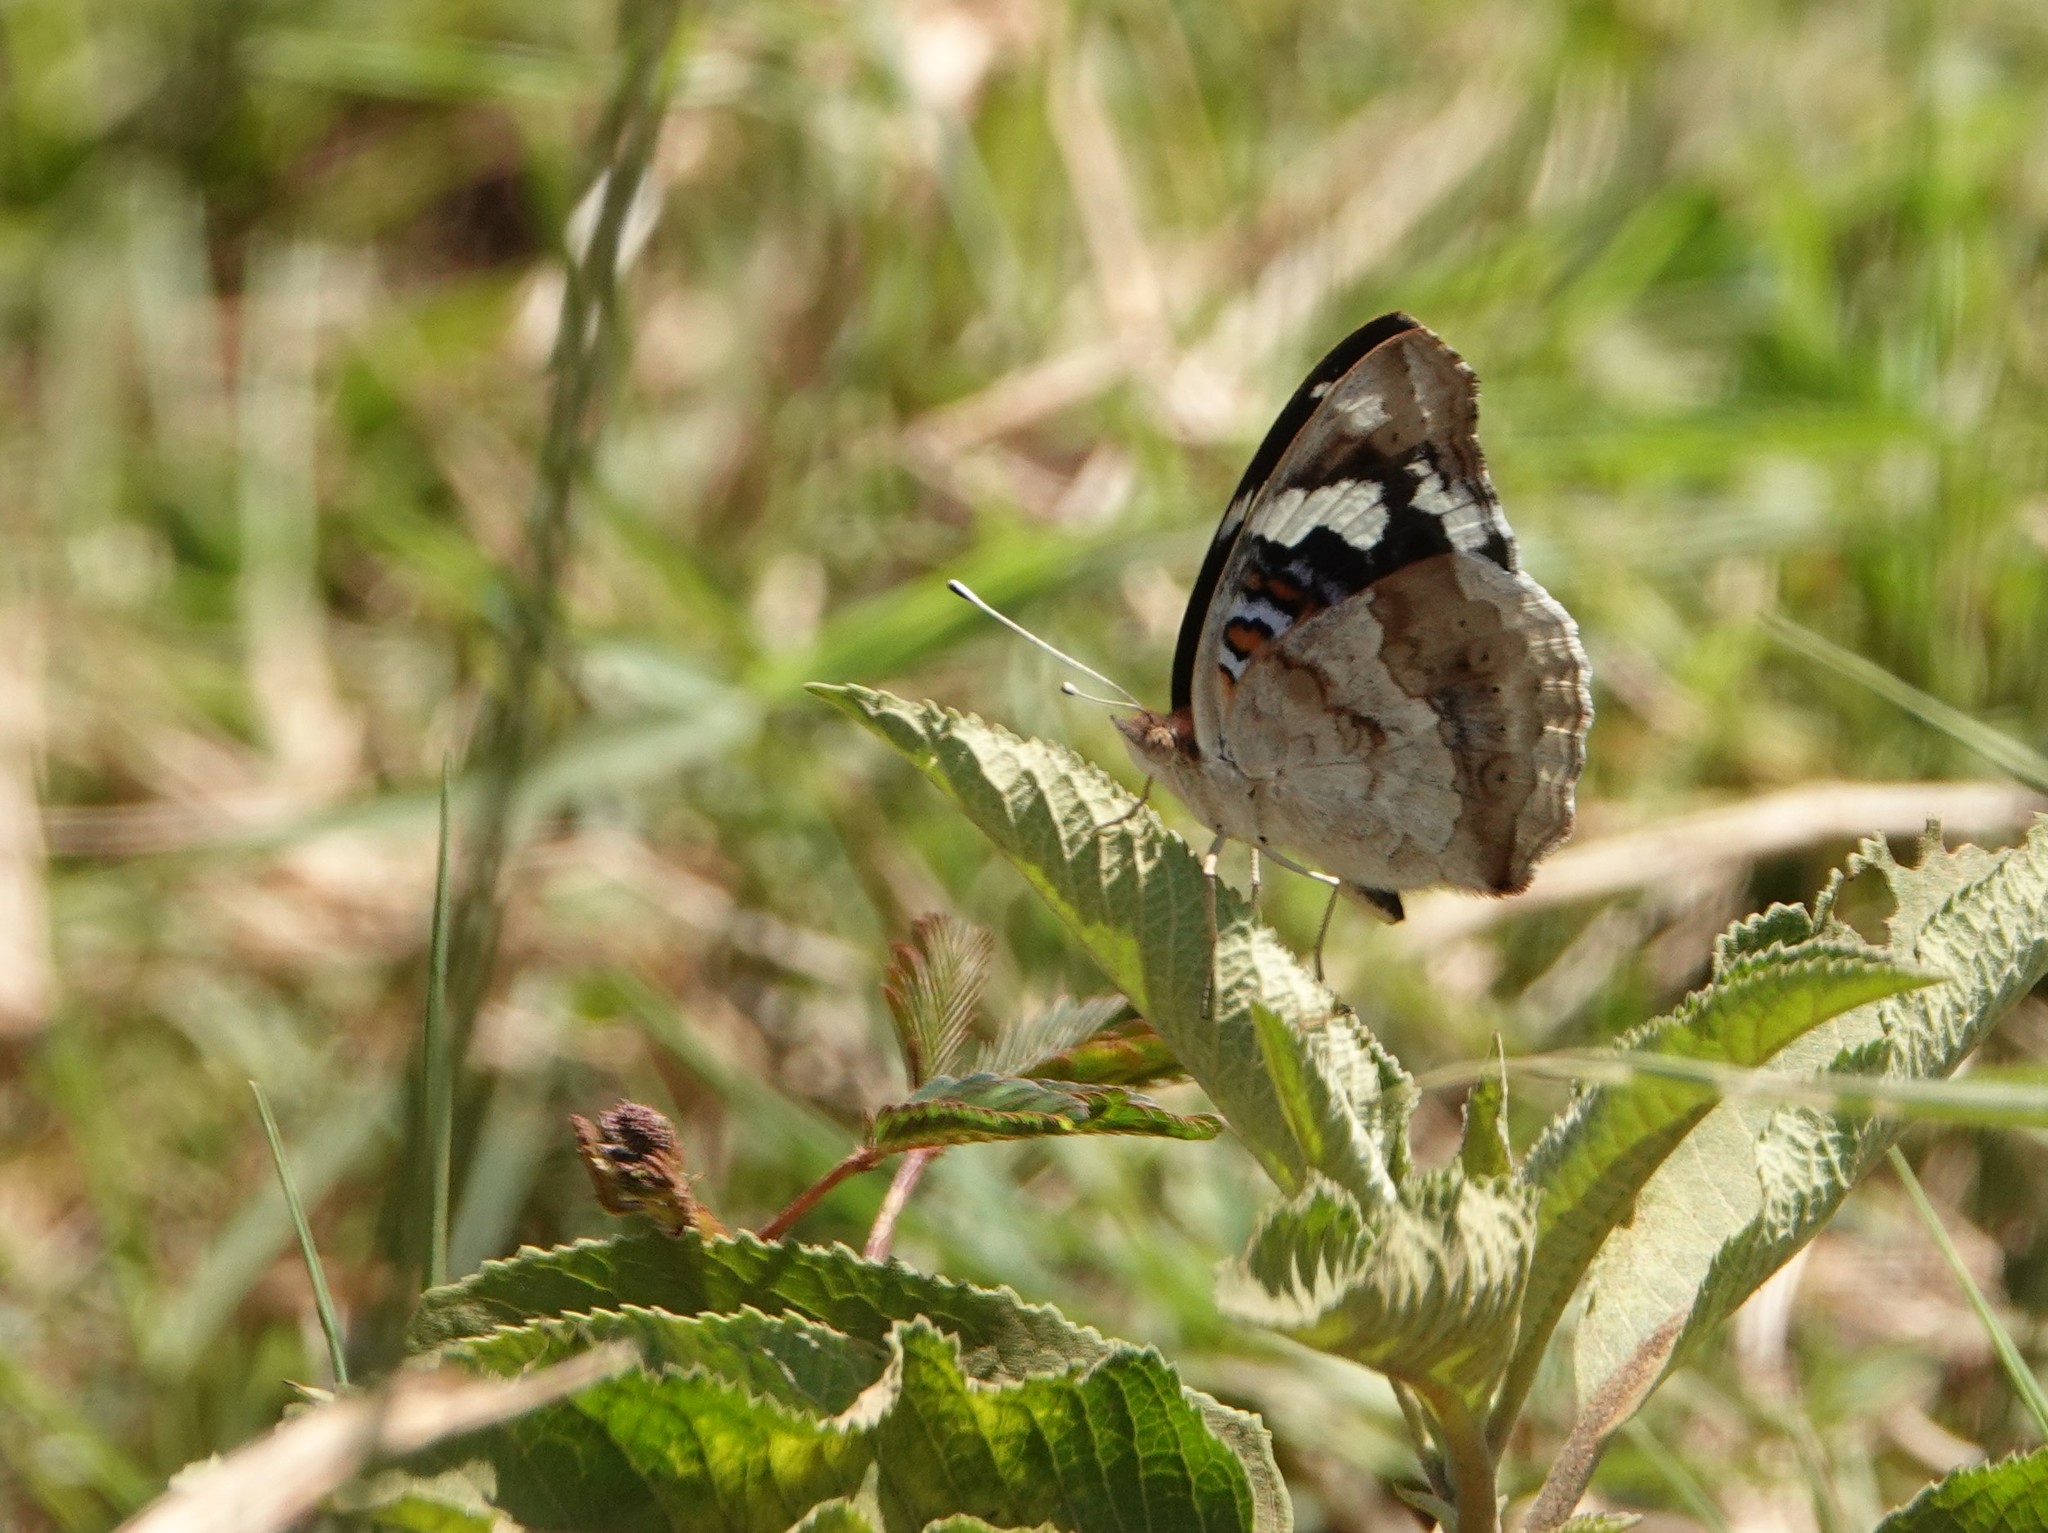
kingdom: Animalia
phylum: Arthropoda
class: Insecta
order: Lepidoptera
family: Nymphalidae
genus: Junonia
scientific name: Junonia oenone
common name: Dark blue pansy
